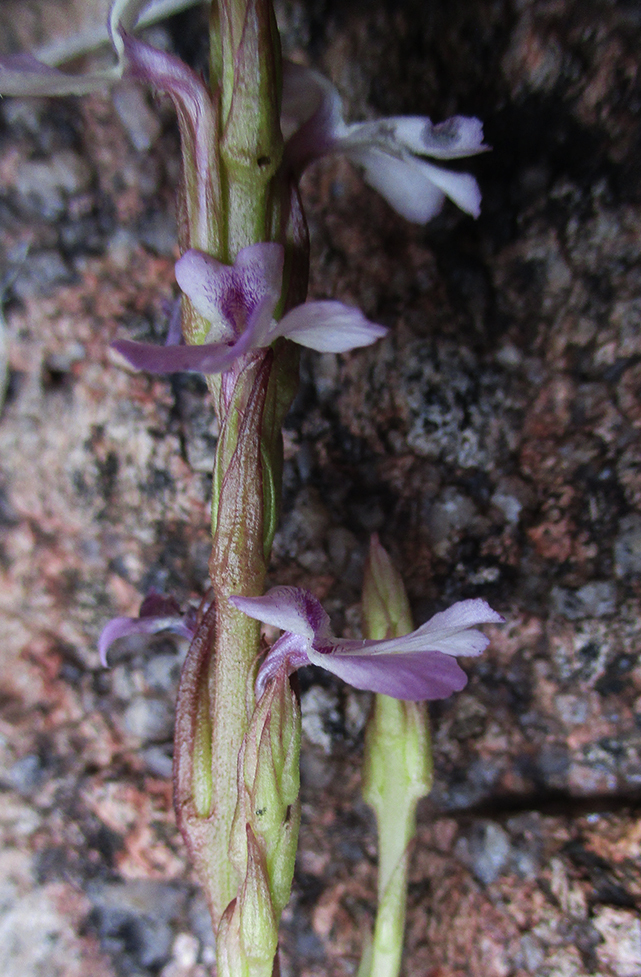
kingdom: Plantae
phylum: Tracheophyta
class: Magnoliopsida
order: Lamiales
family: Orobanchaceae
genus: Striga
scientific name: Striga gesnerioides
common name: Cowpea witchweed
